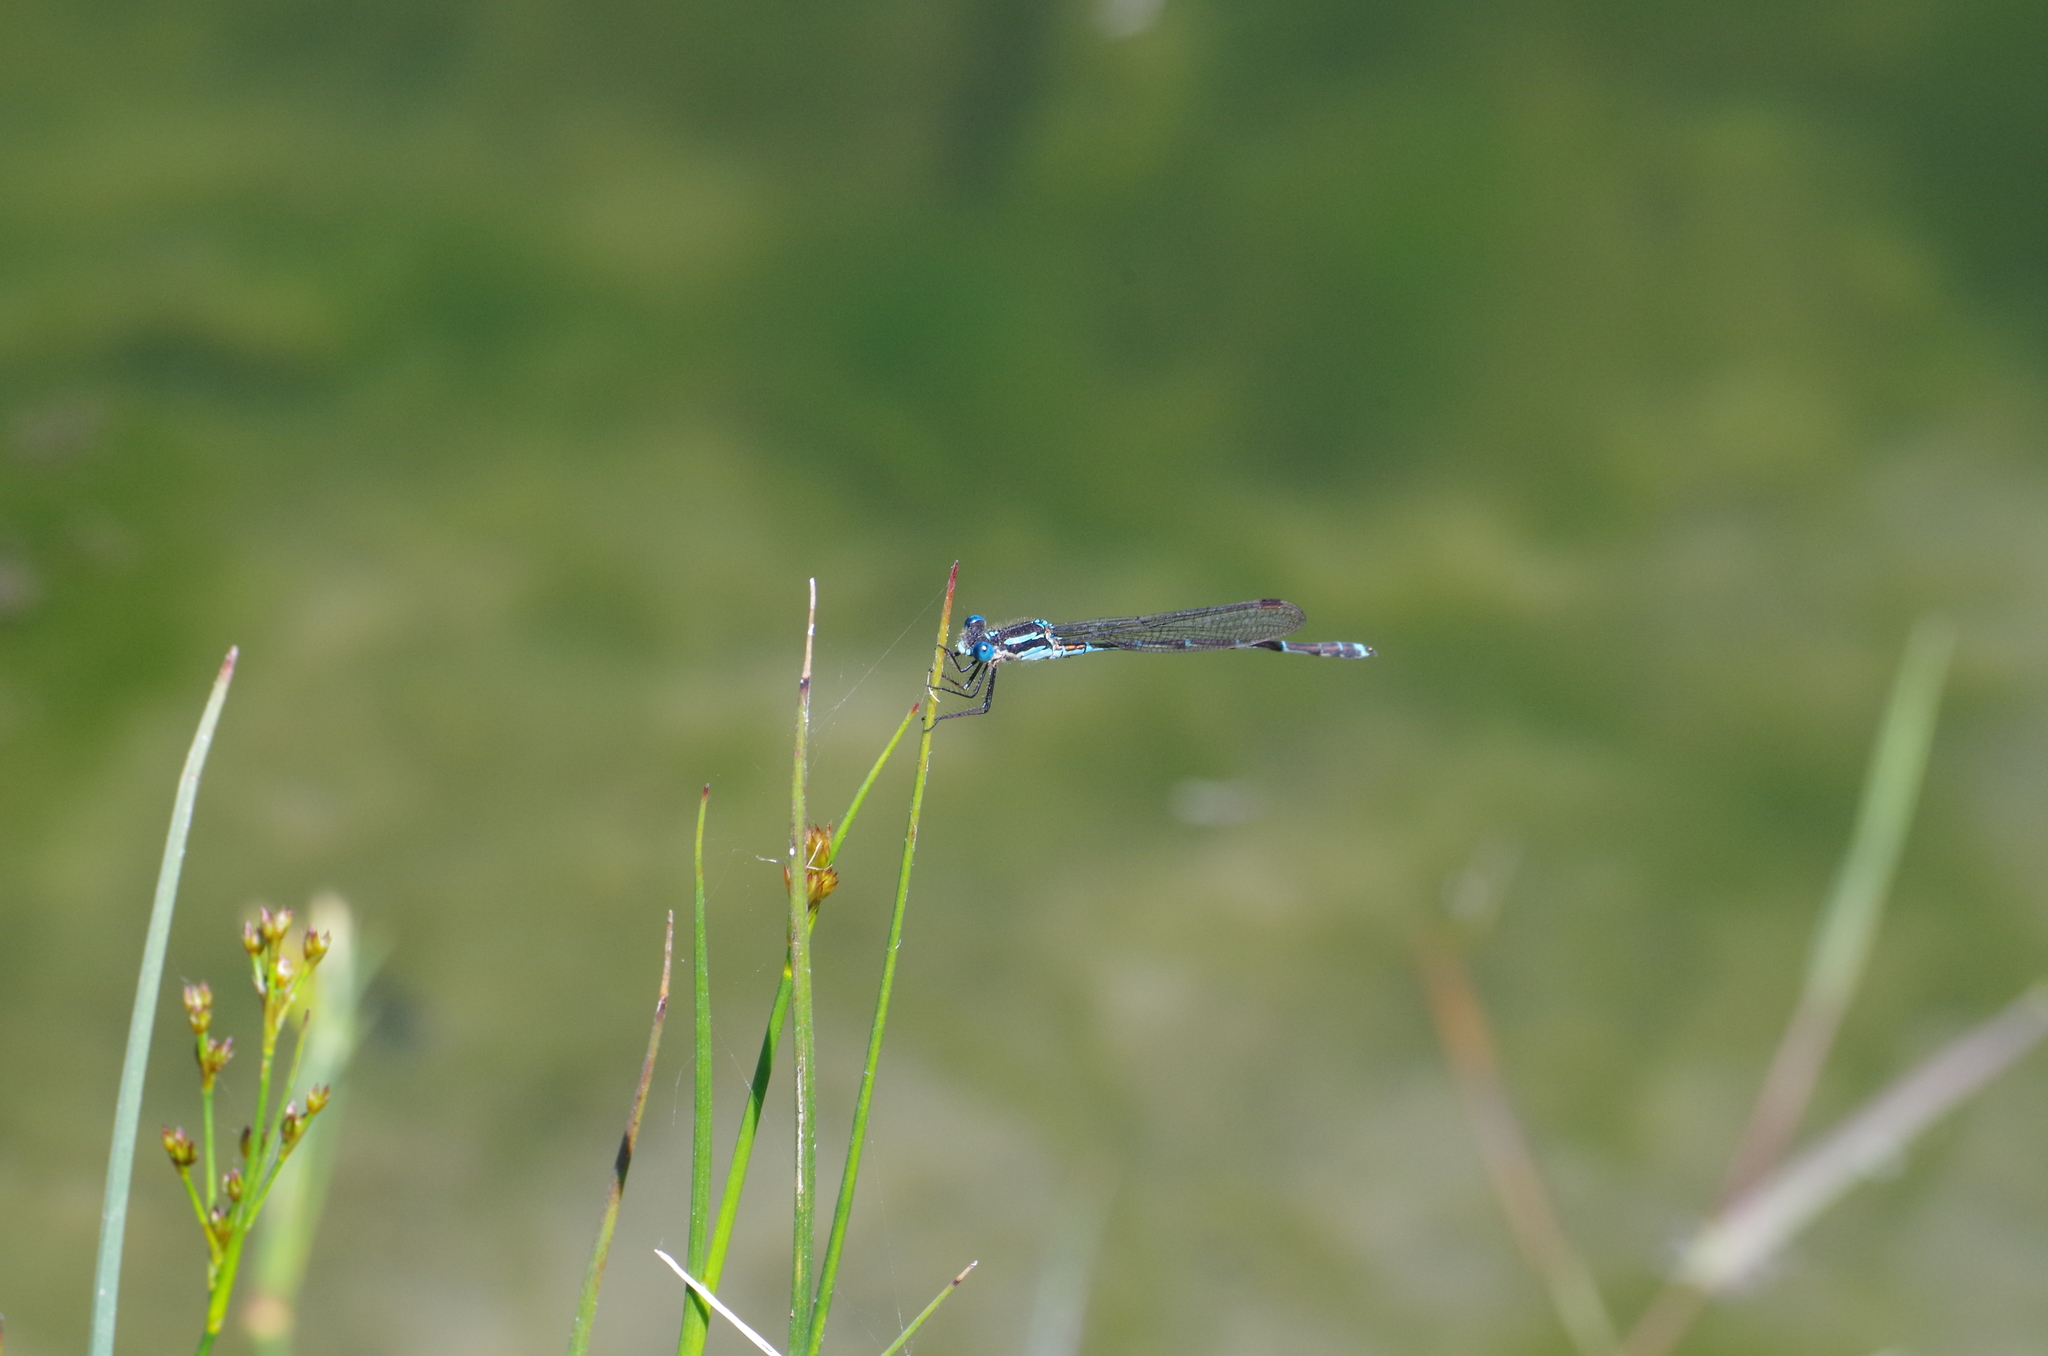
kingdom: Animalia
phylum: Arthropoda
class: Insecta
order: Odonata
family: Lestidae
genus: Austrolestes
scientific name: Austrolestes colensonis
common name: Blue damselfly
